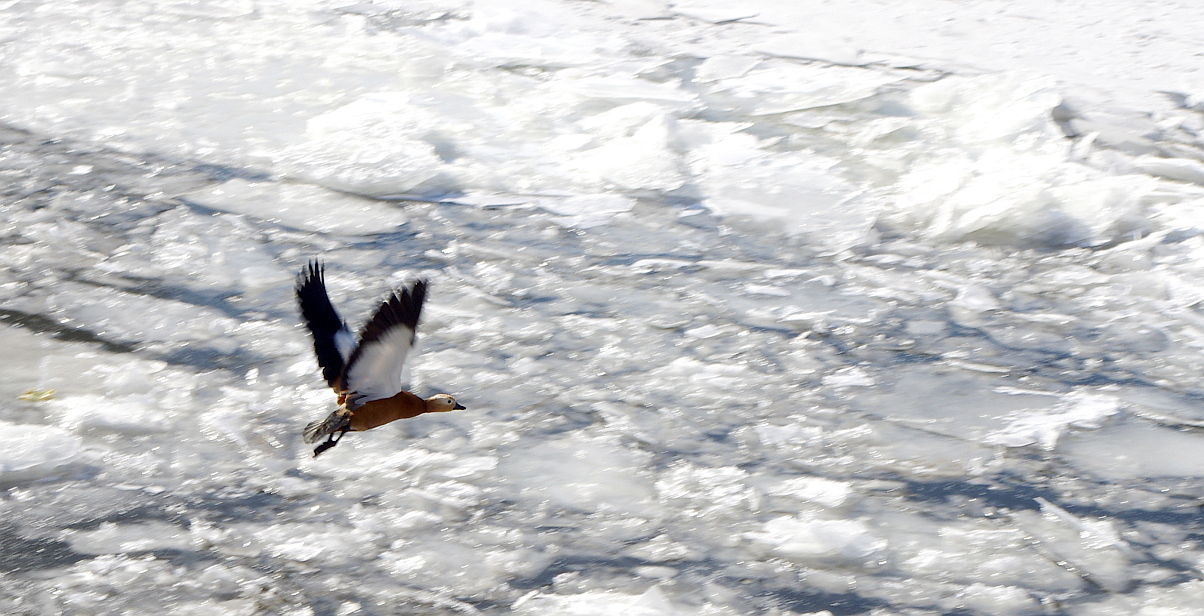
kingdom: Animalia
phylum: Chordata
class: Aves
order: Anseriformes
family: Anatidae
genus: Tadorna
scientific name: Tadorna ferruginea
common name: Ruddy shelduck
